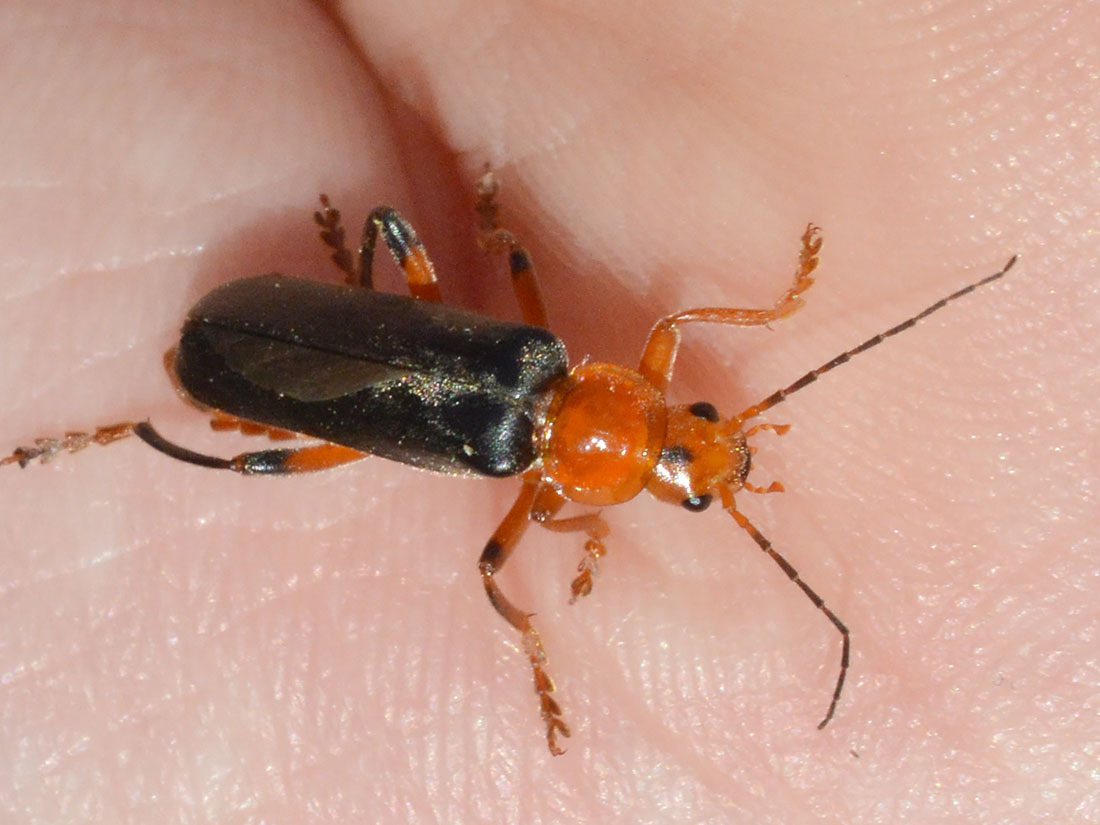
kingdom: Animalia
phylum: Arthropoda
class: Insecta
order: Coleoptera
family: Cantharidae
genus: Cantharis
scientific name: Cantharis livida
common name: Livid soldier beetle
